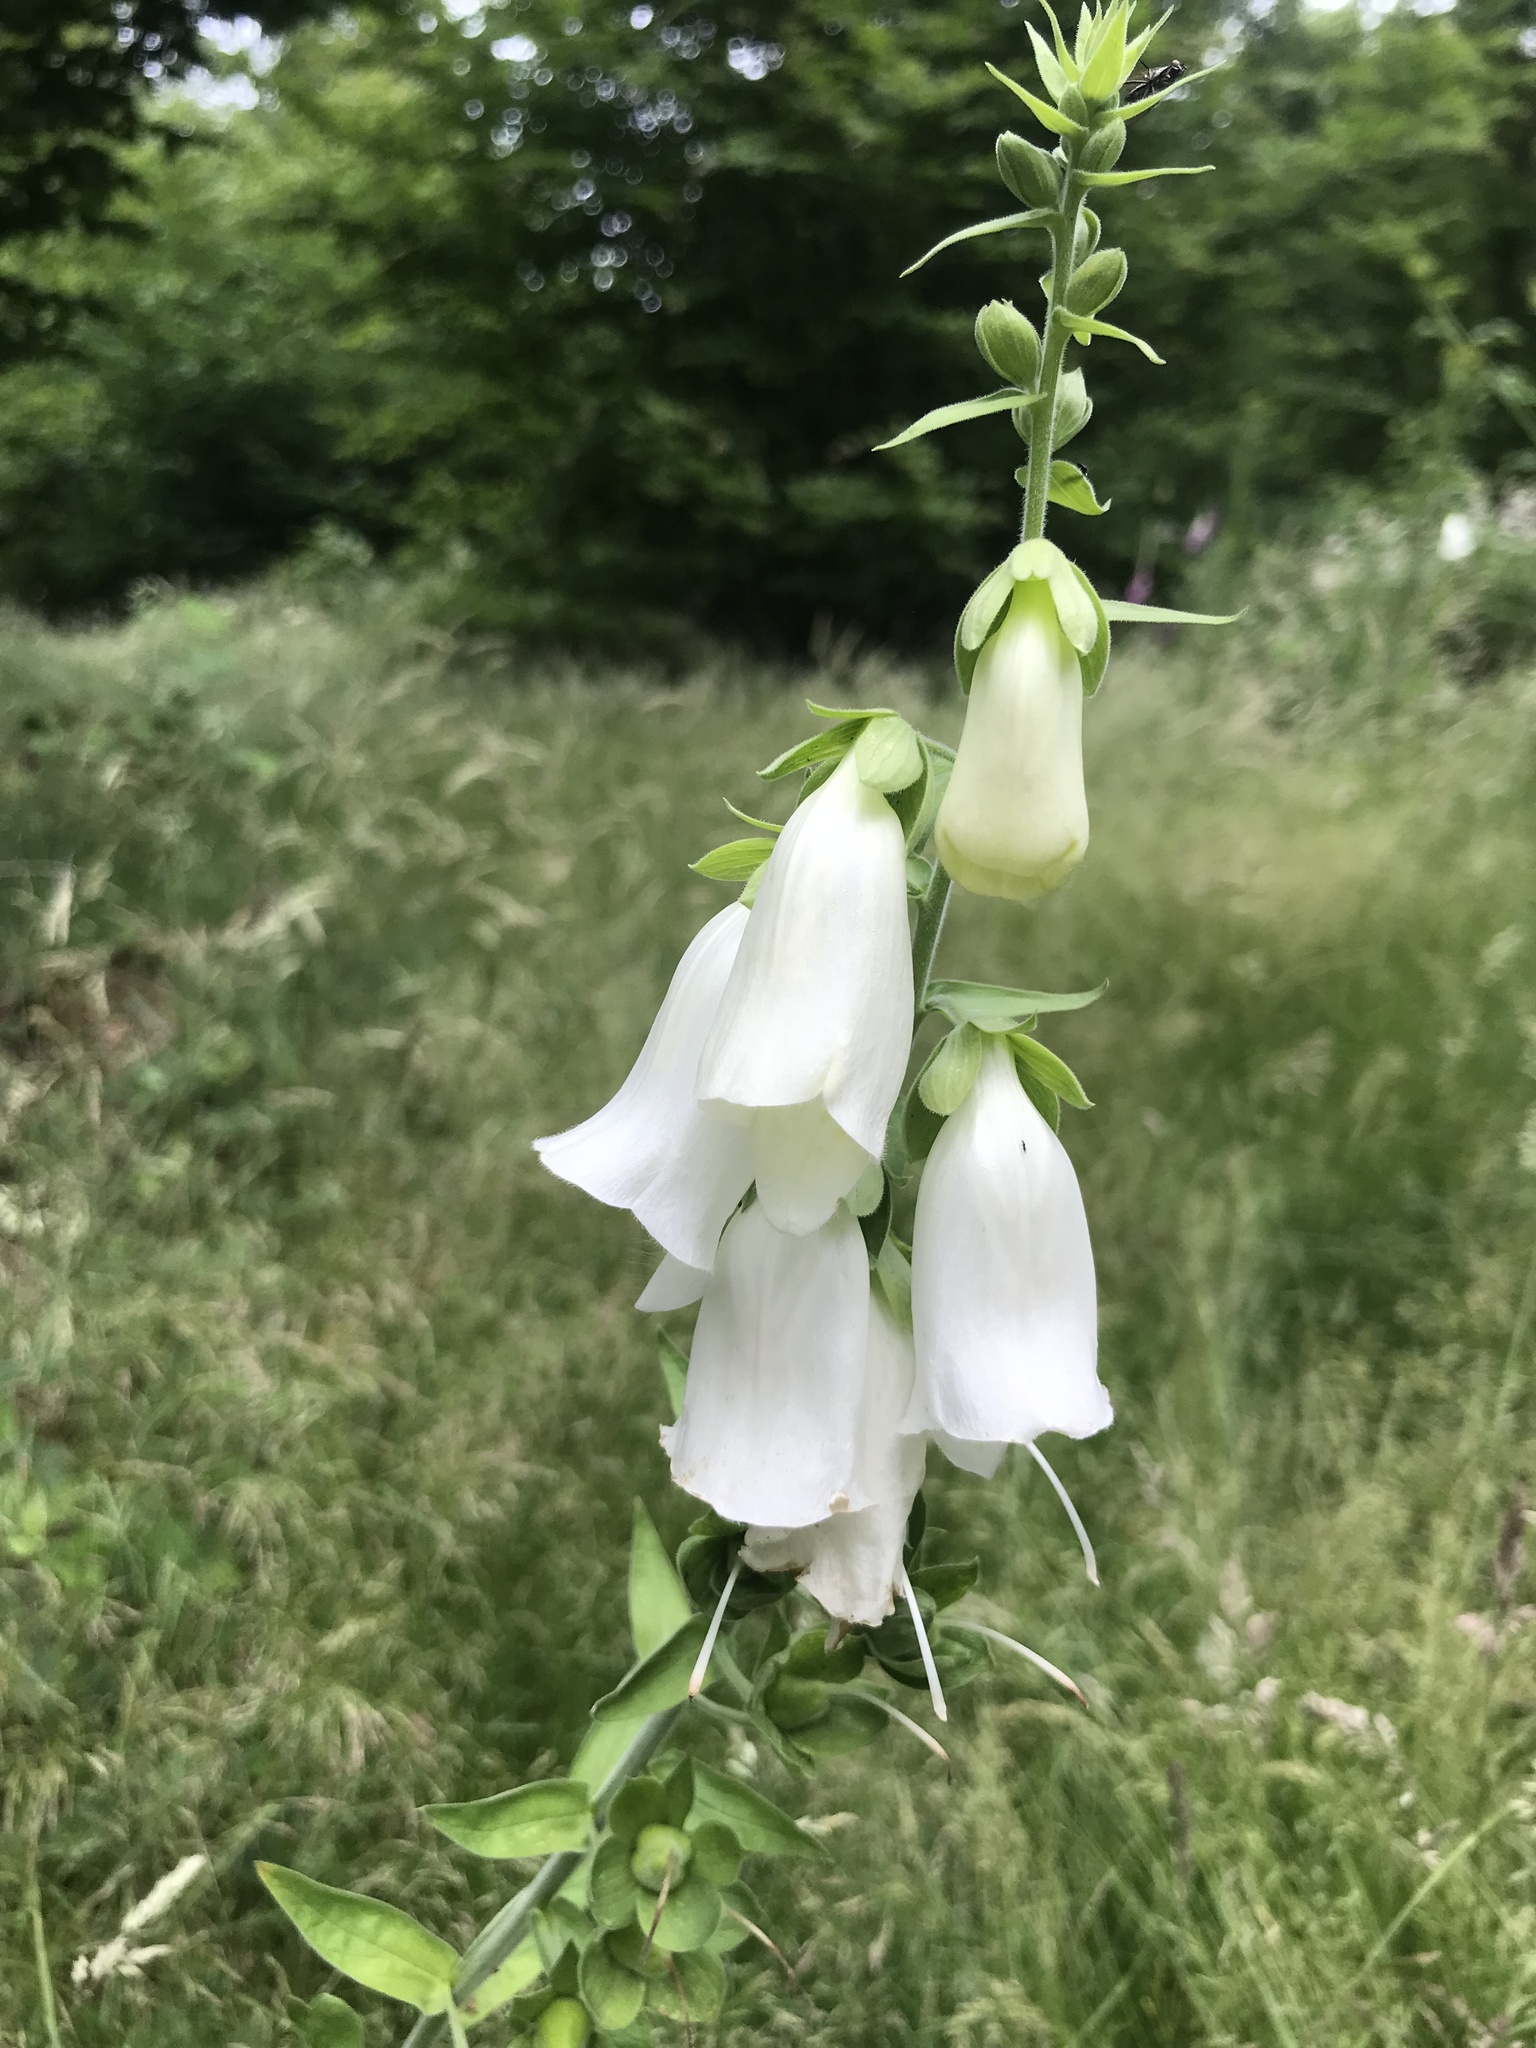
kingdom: Plantae
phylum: Tracheophyta
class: Magnoliopsida
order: Lamiales
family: Plantaginaceae
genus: Digitalis
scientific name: Digitalis purpurea
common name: Foxglove
